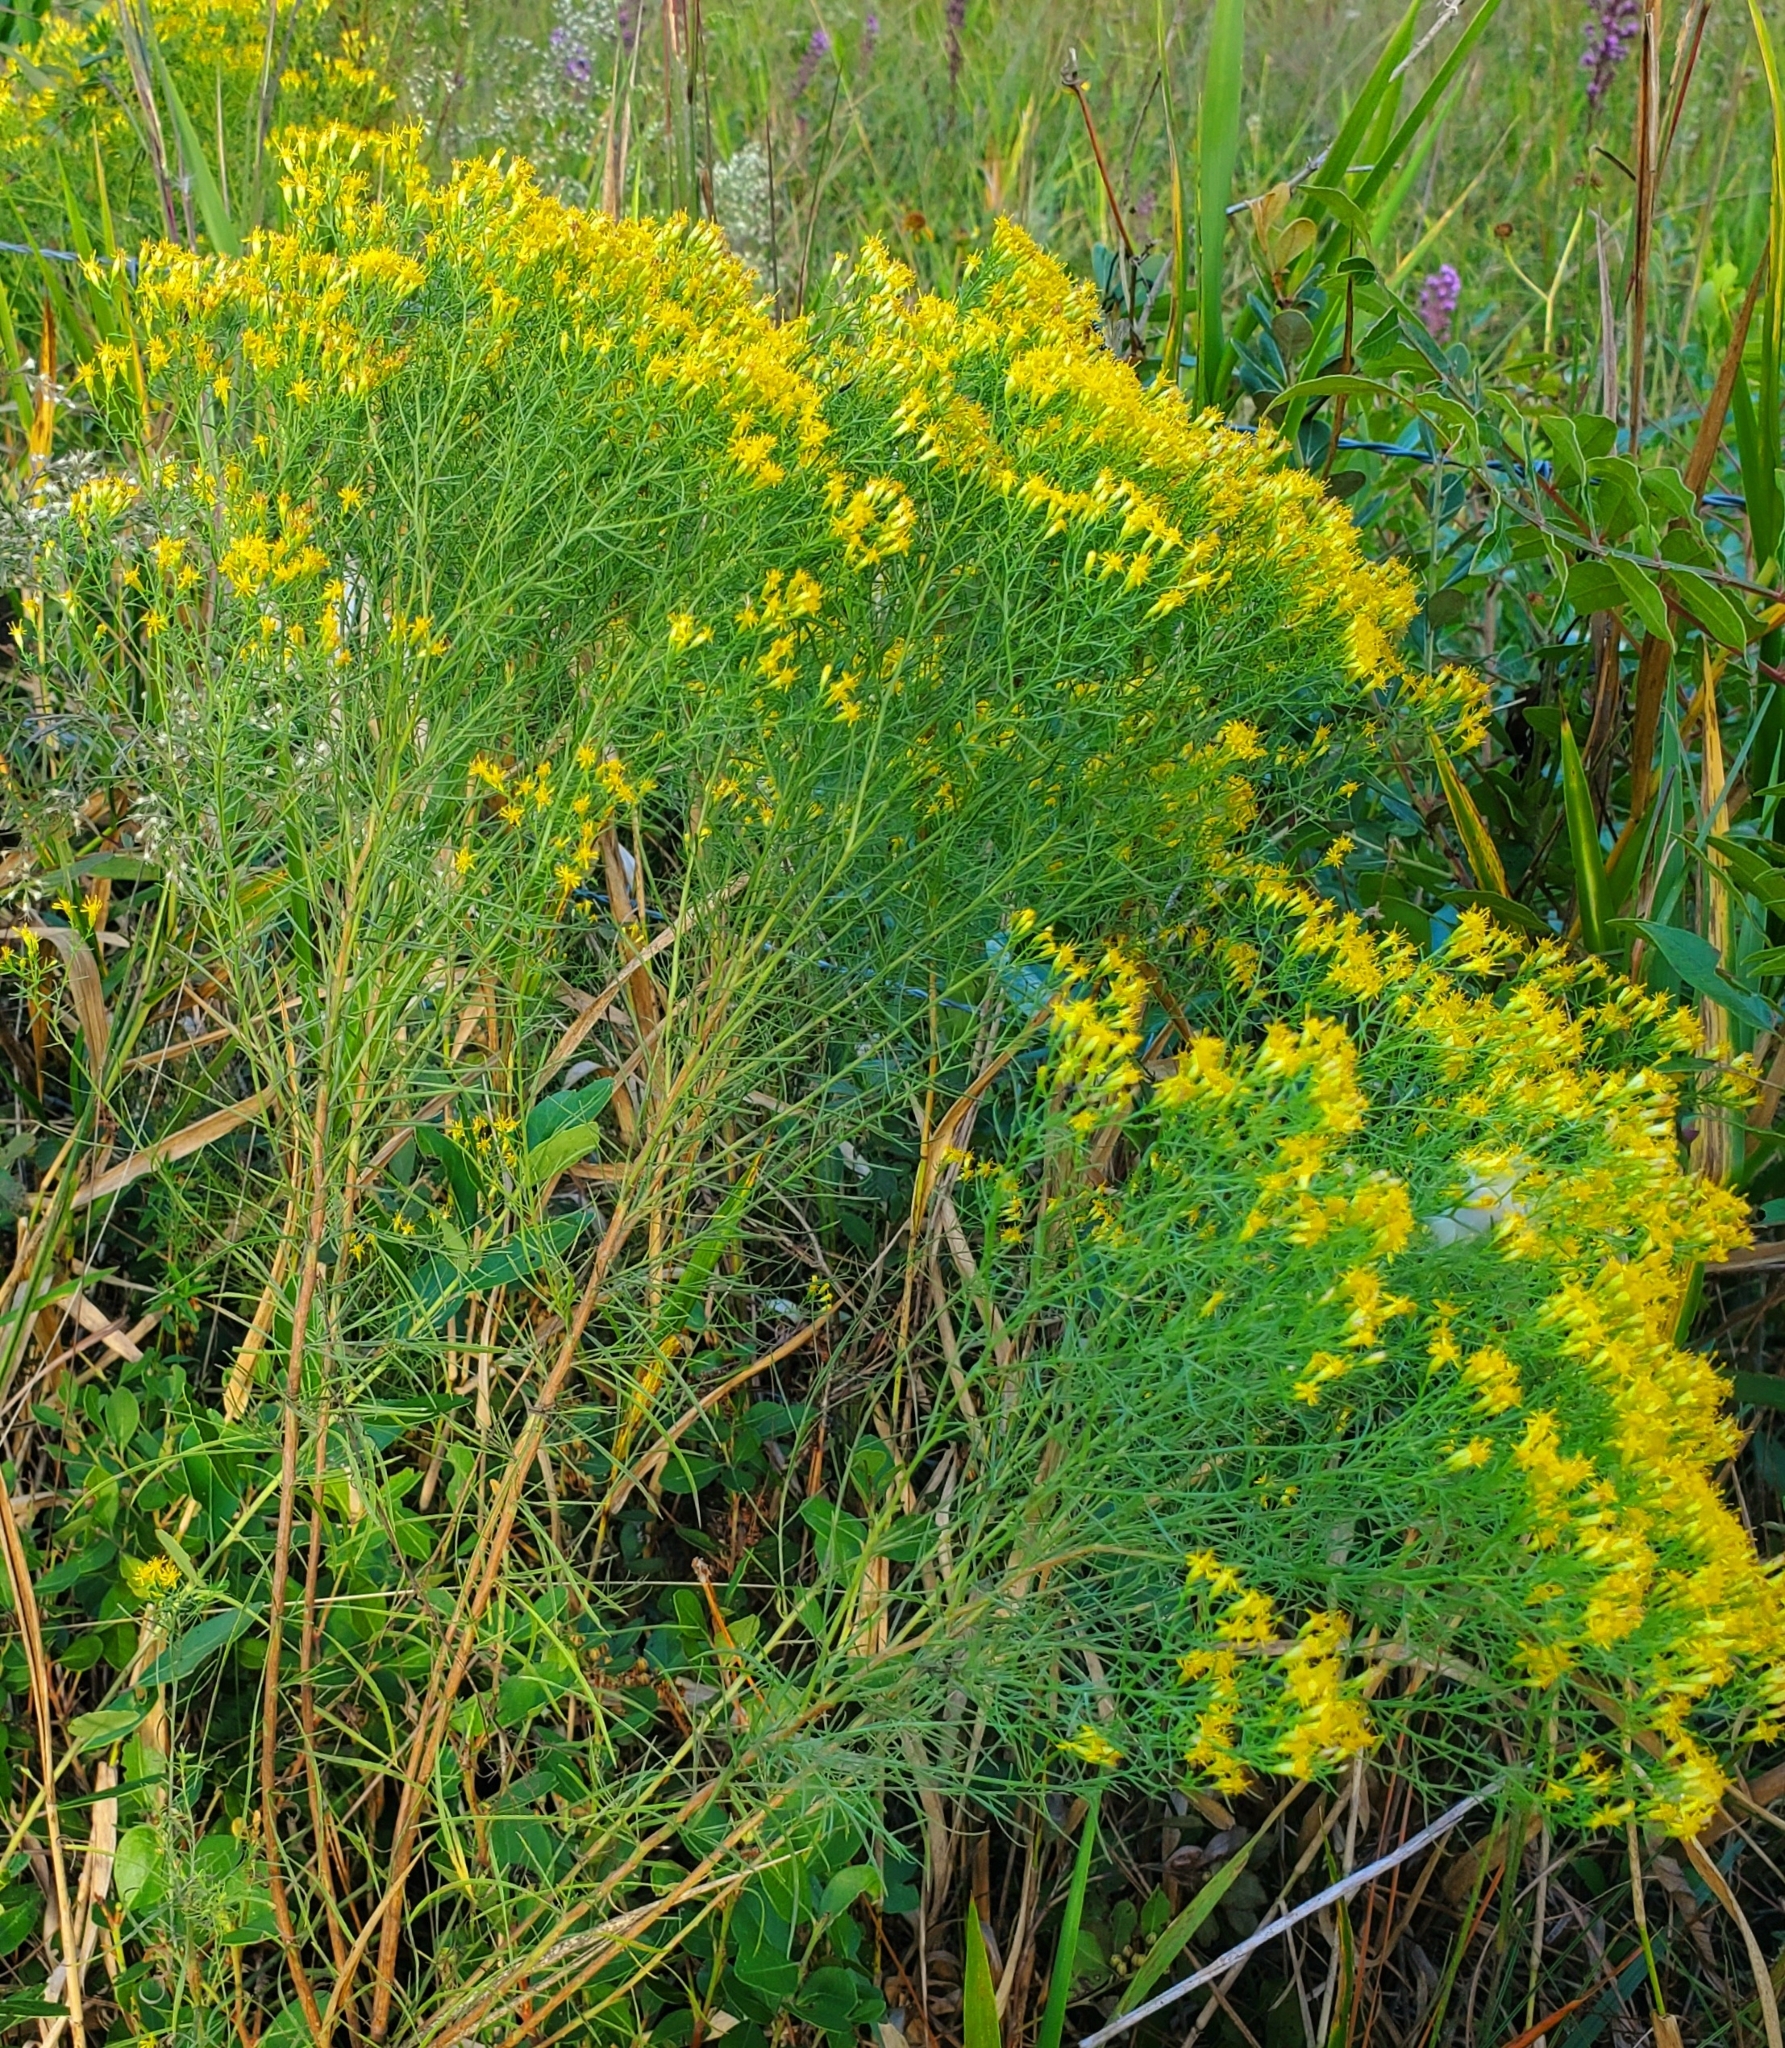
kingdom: Plantae
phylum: Tracheophyta
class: Magnoliopsida
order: Asterales
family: Asteraceae
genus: Euthamia
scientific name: Euthamia caroliniana
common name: Coastal plain goldentop
